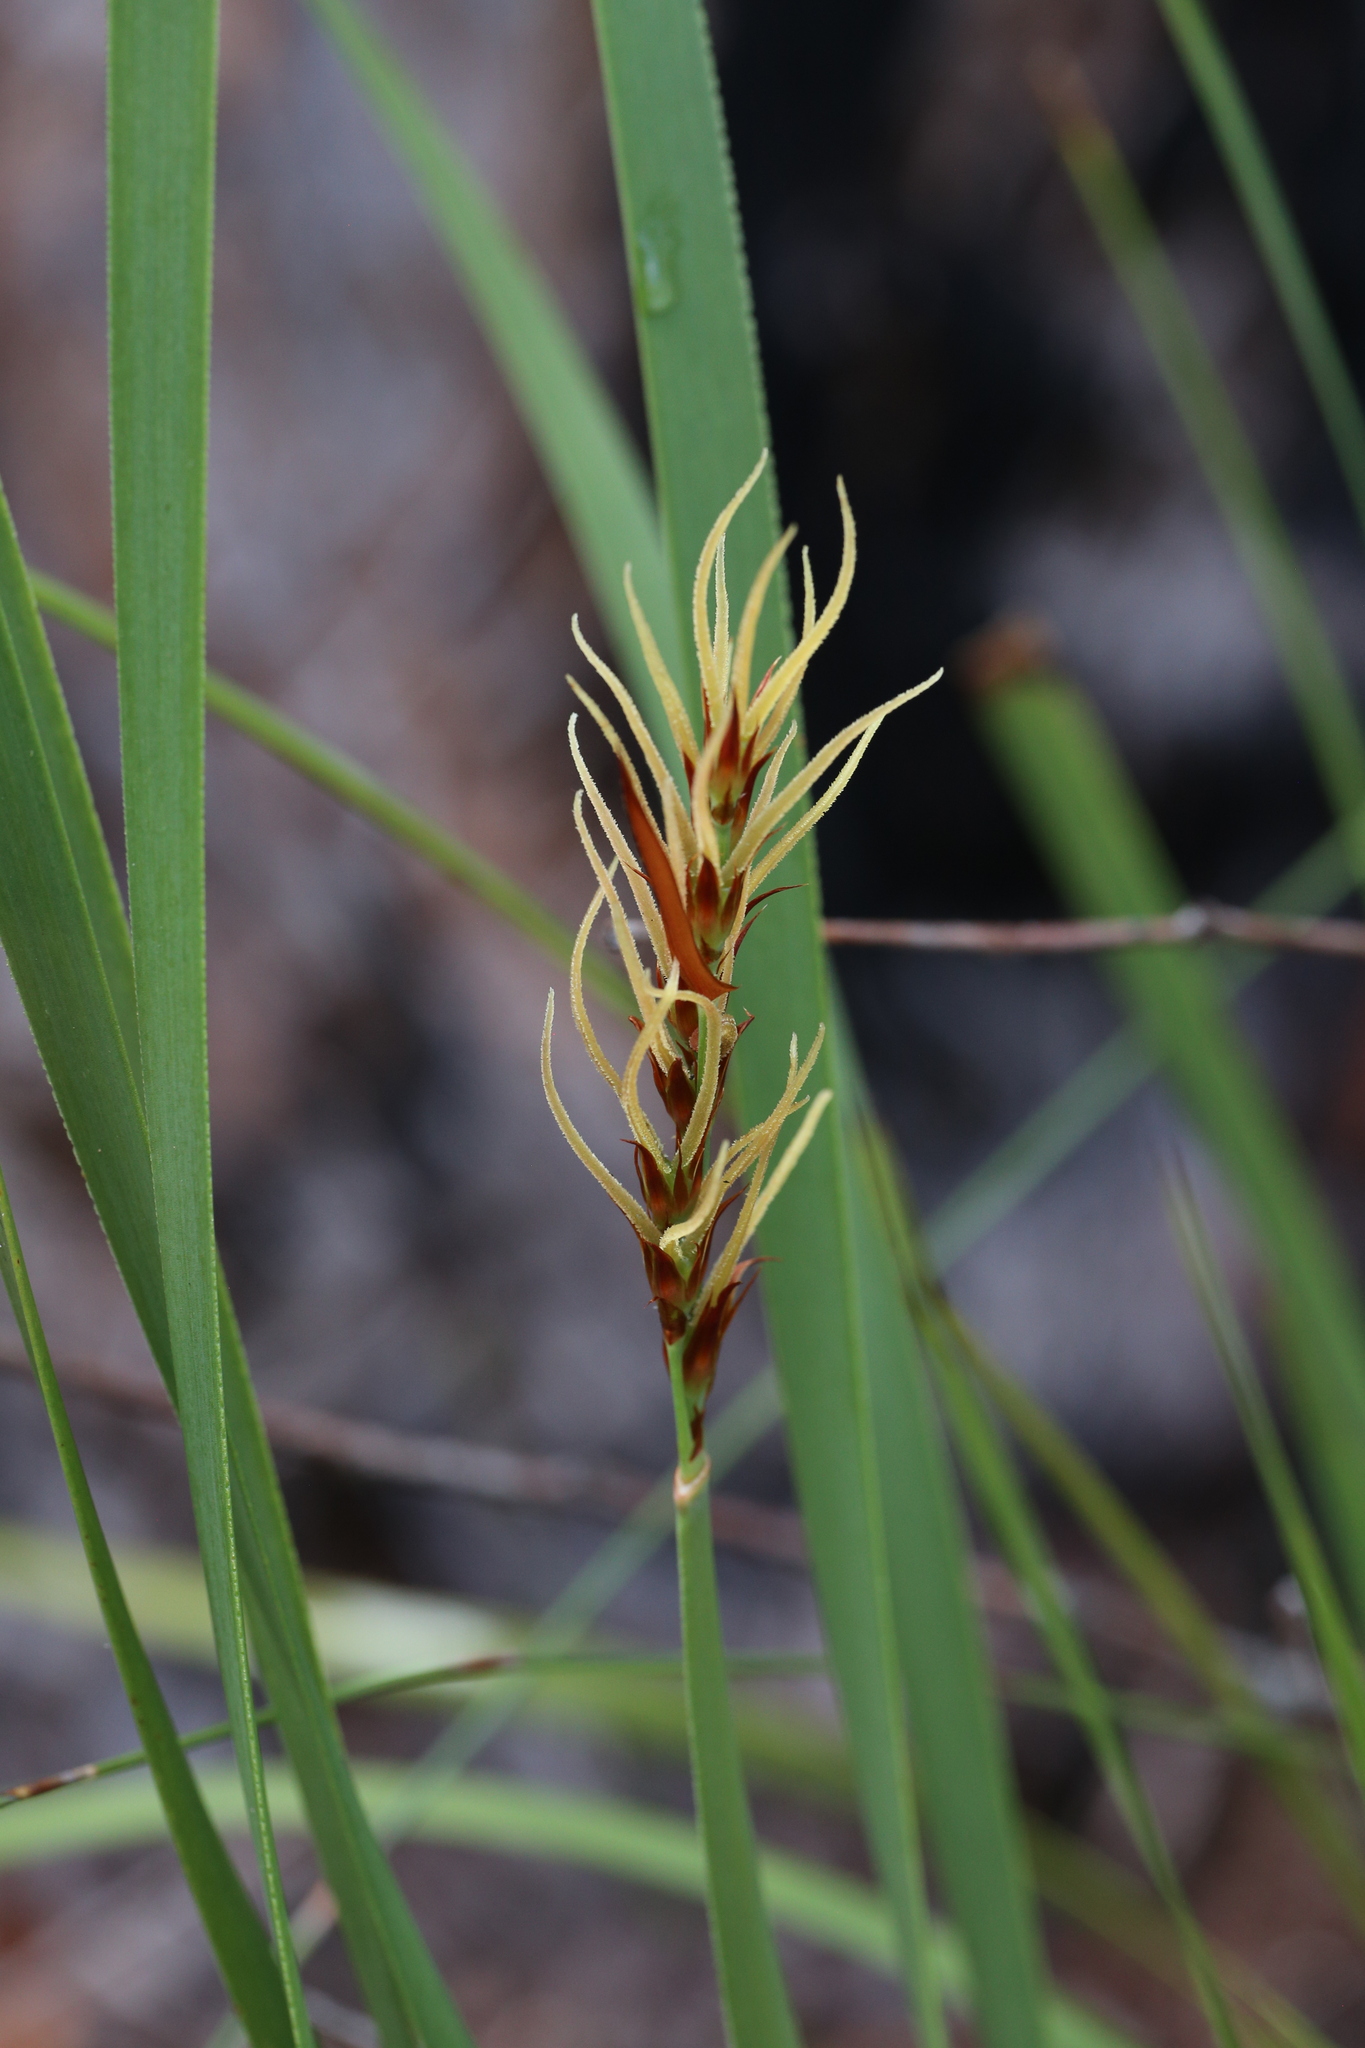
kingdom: Plantae
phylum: Tracheophyta
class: Liliopsida
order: Poales
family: Restionaceae
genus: Anarthria
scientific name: Anarthria scabra
